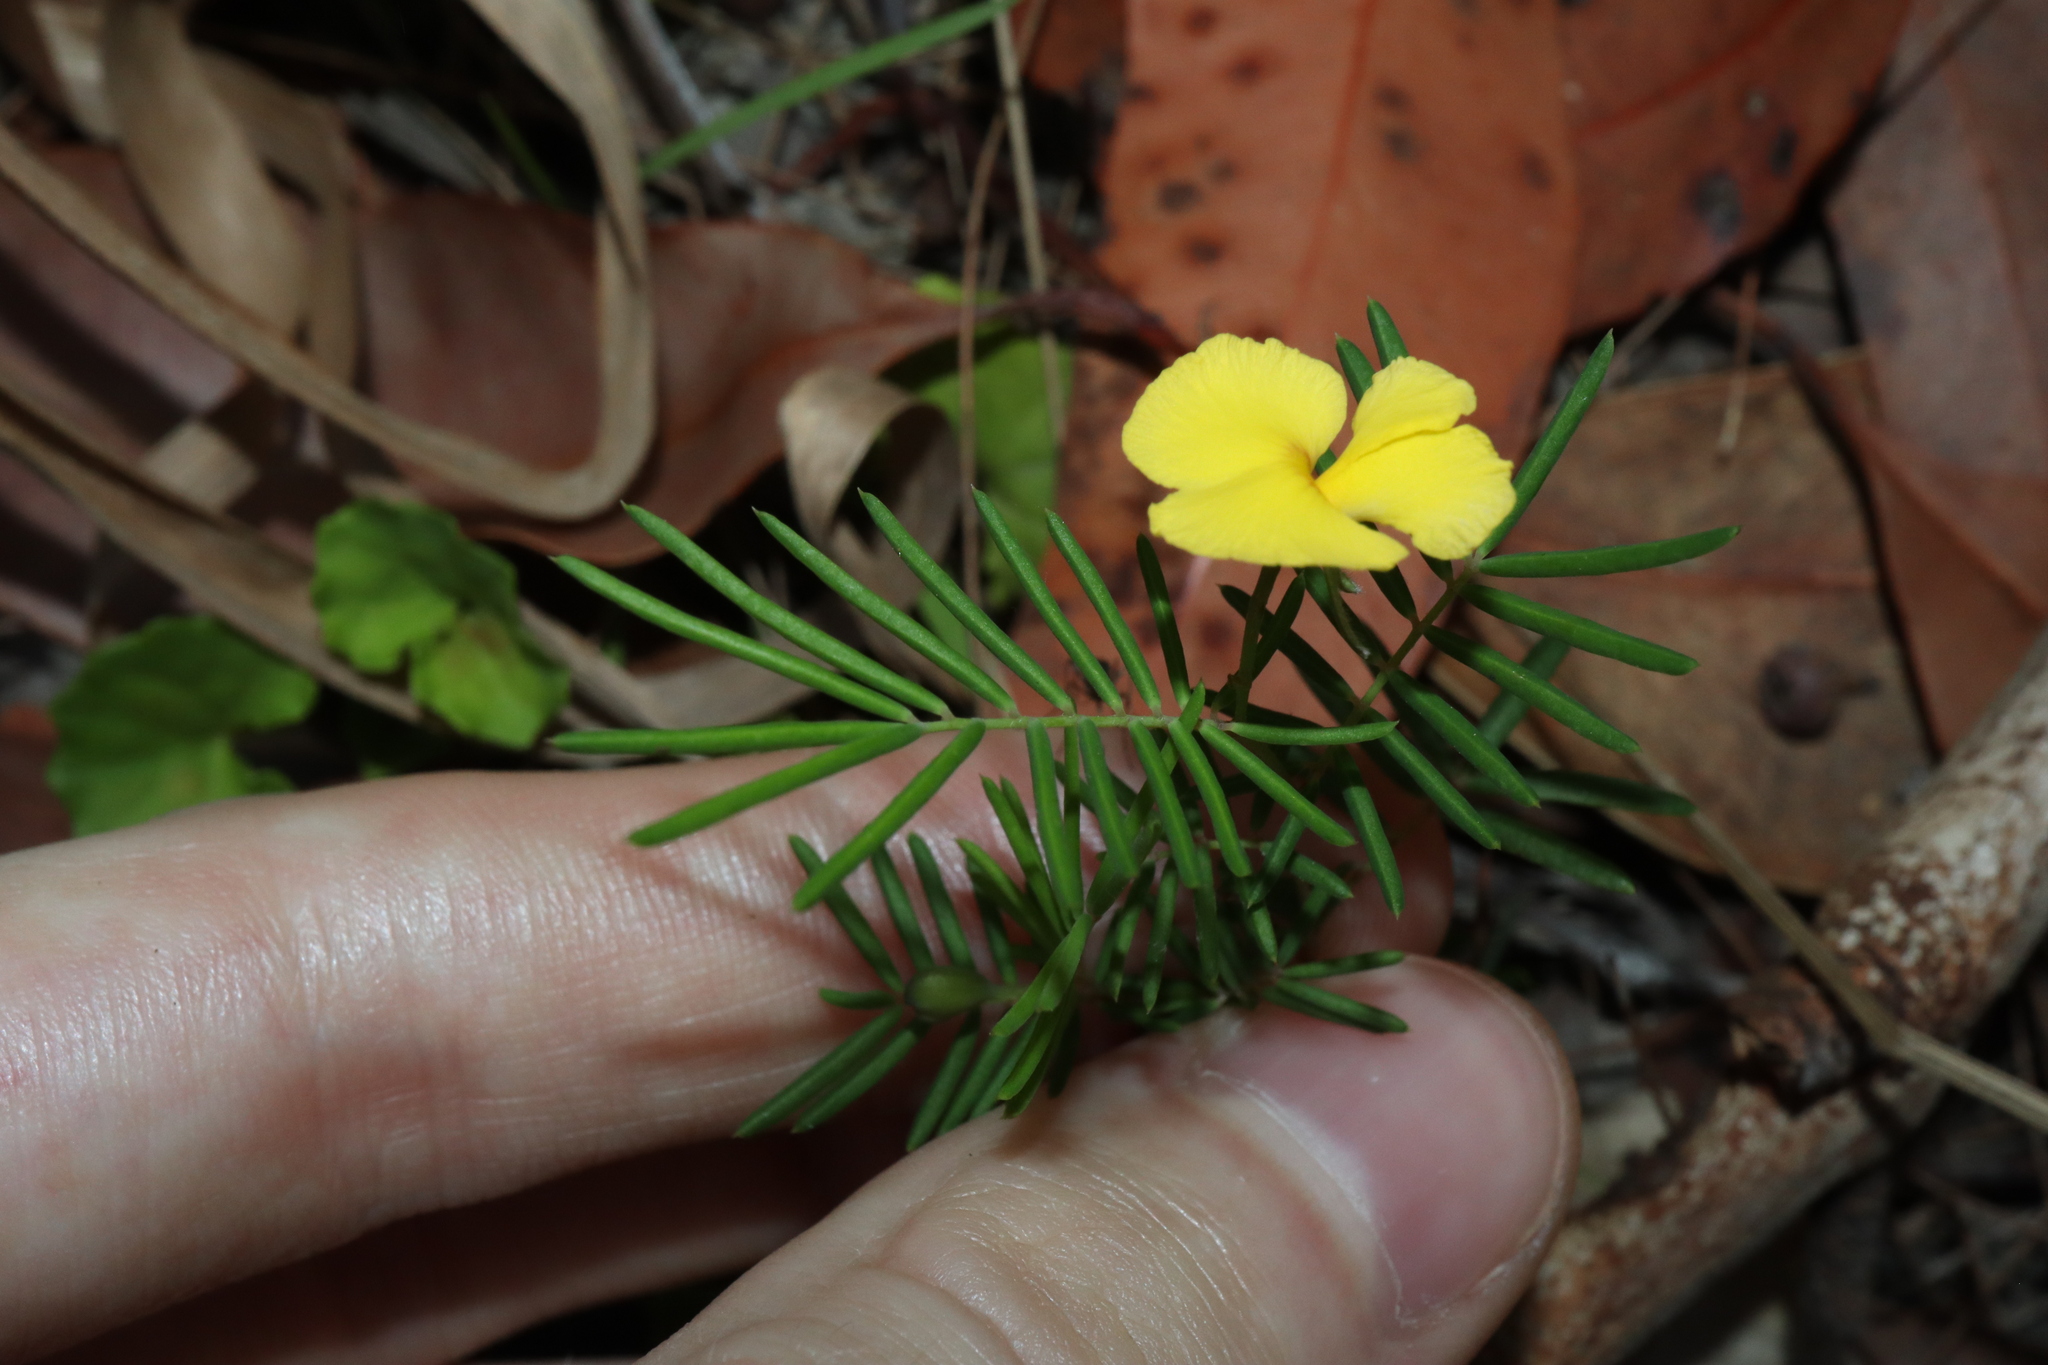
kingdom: Plantae
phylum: Tracheophyta
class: Magnoliopsida
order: Fabales
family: Fabaceae
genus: Gompholobium
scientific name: Gompholobium pinnatum
